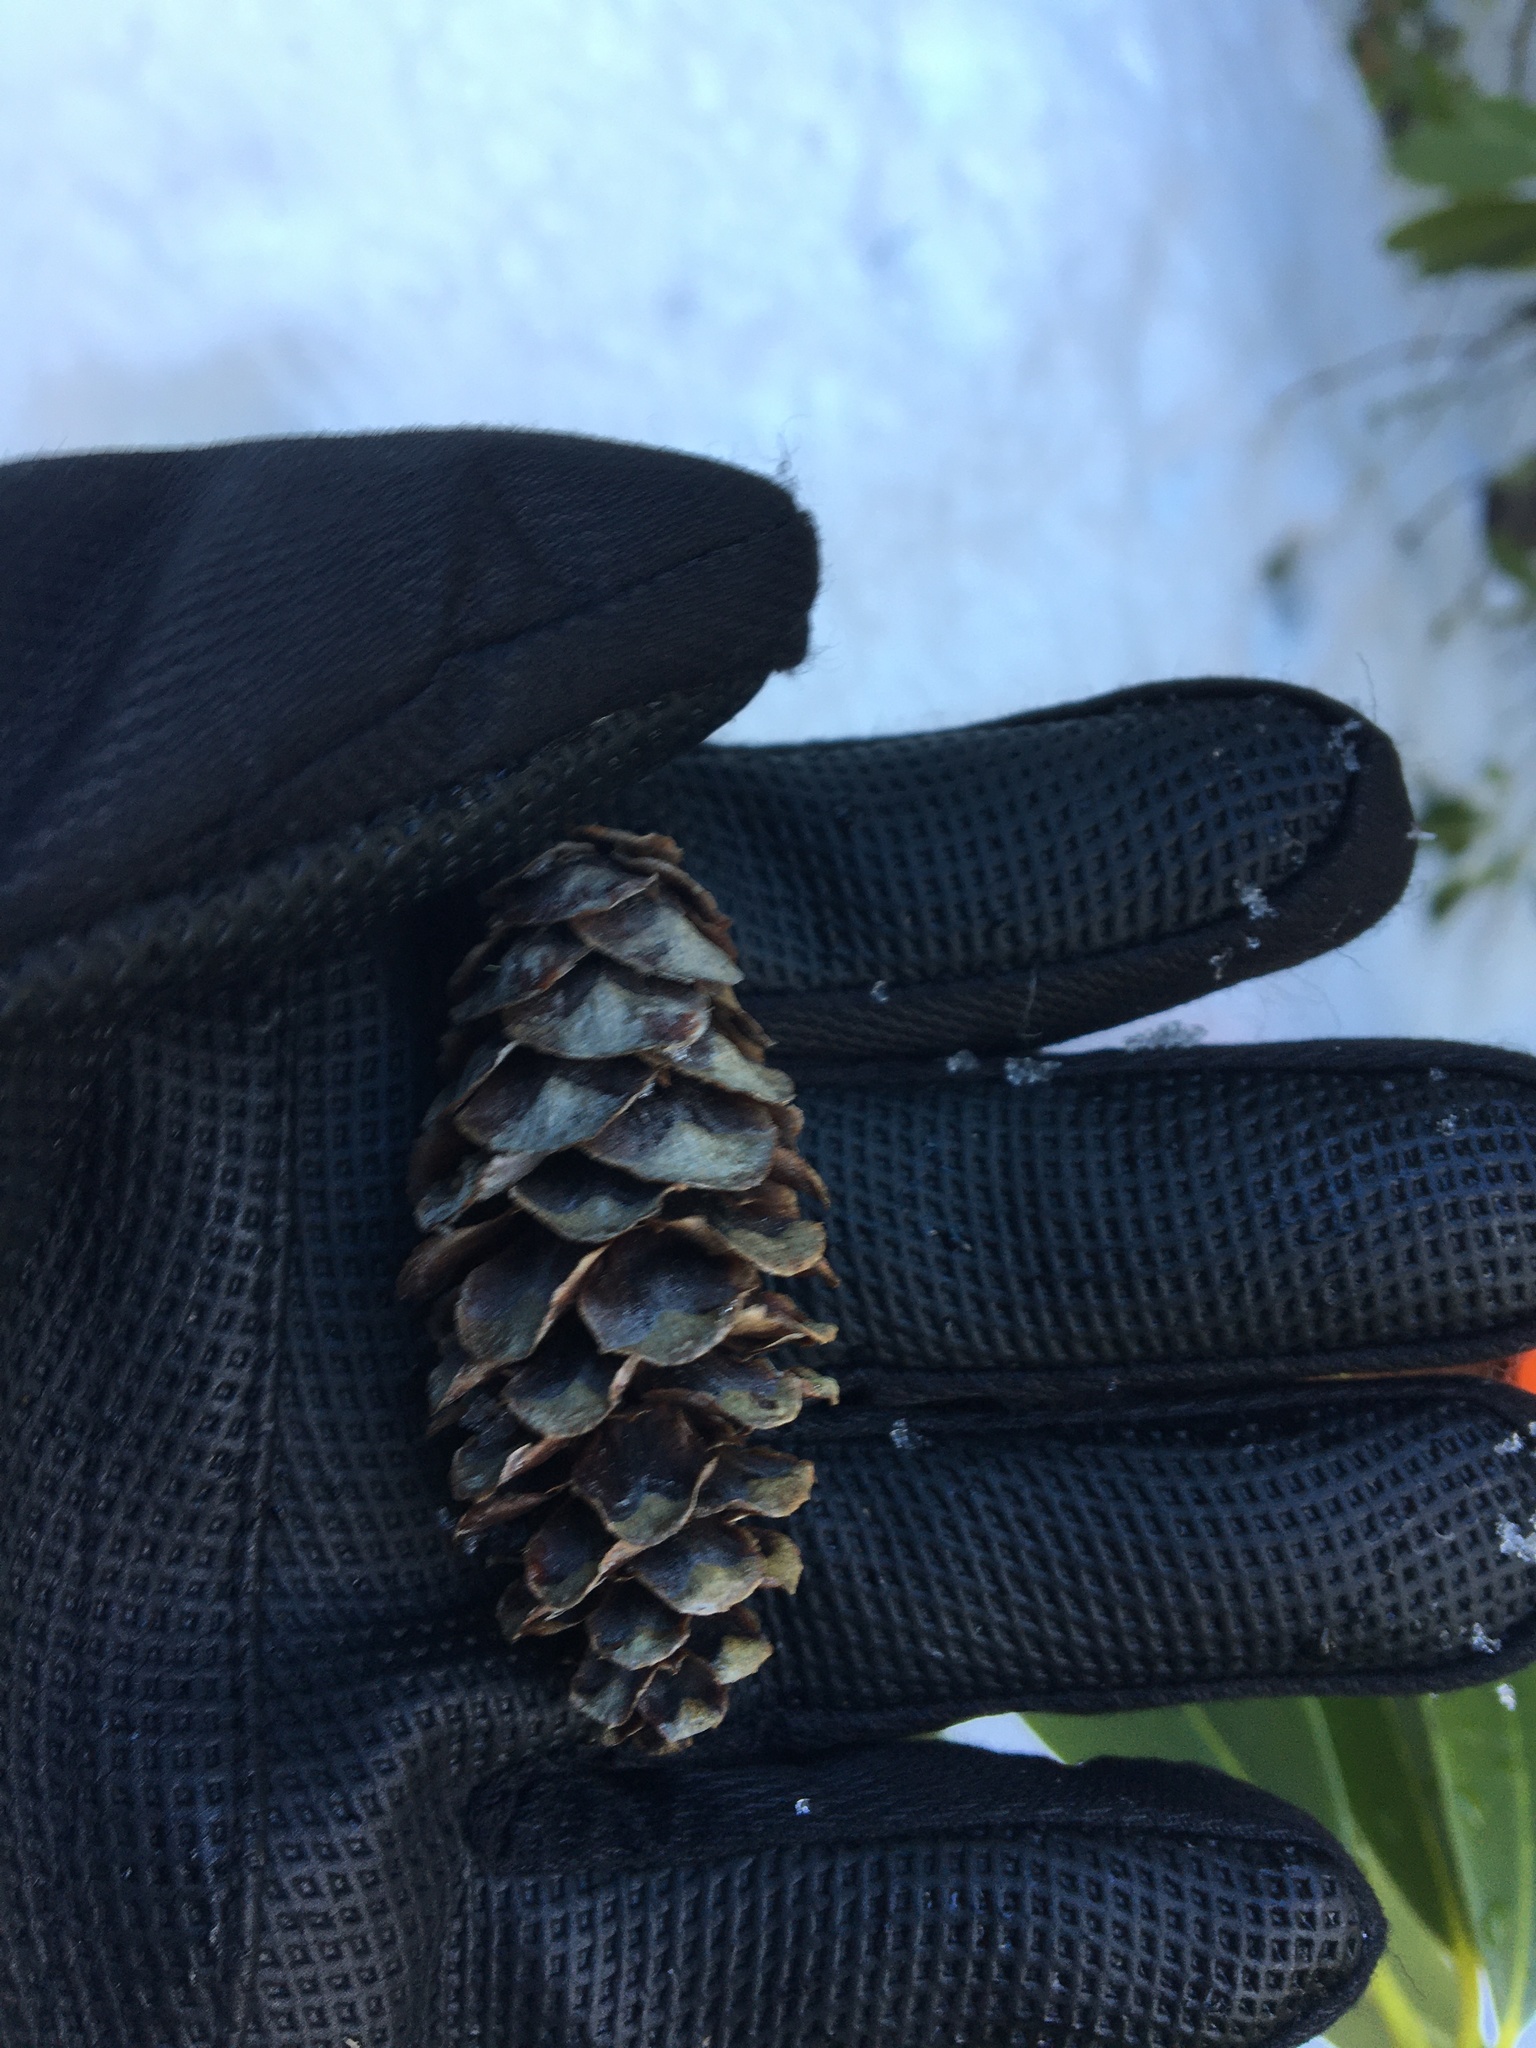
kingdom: Plantae
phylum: Tracheophyta
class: Pinopsida
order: Pinales
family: Pinaceae
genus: Tsuga
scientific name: Tsuga mertensiana
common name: Mountain hemlock
